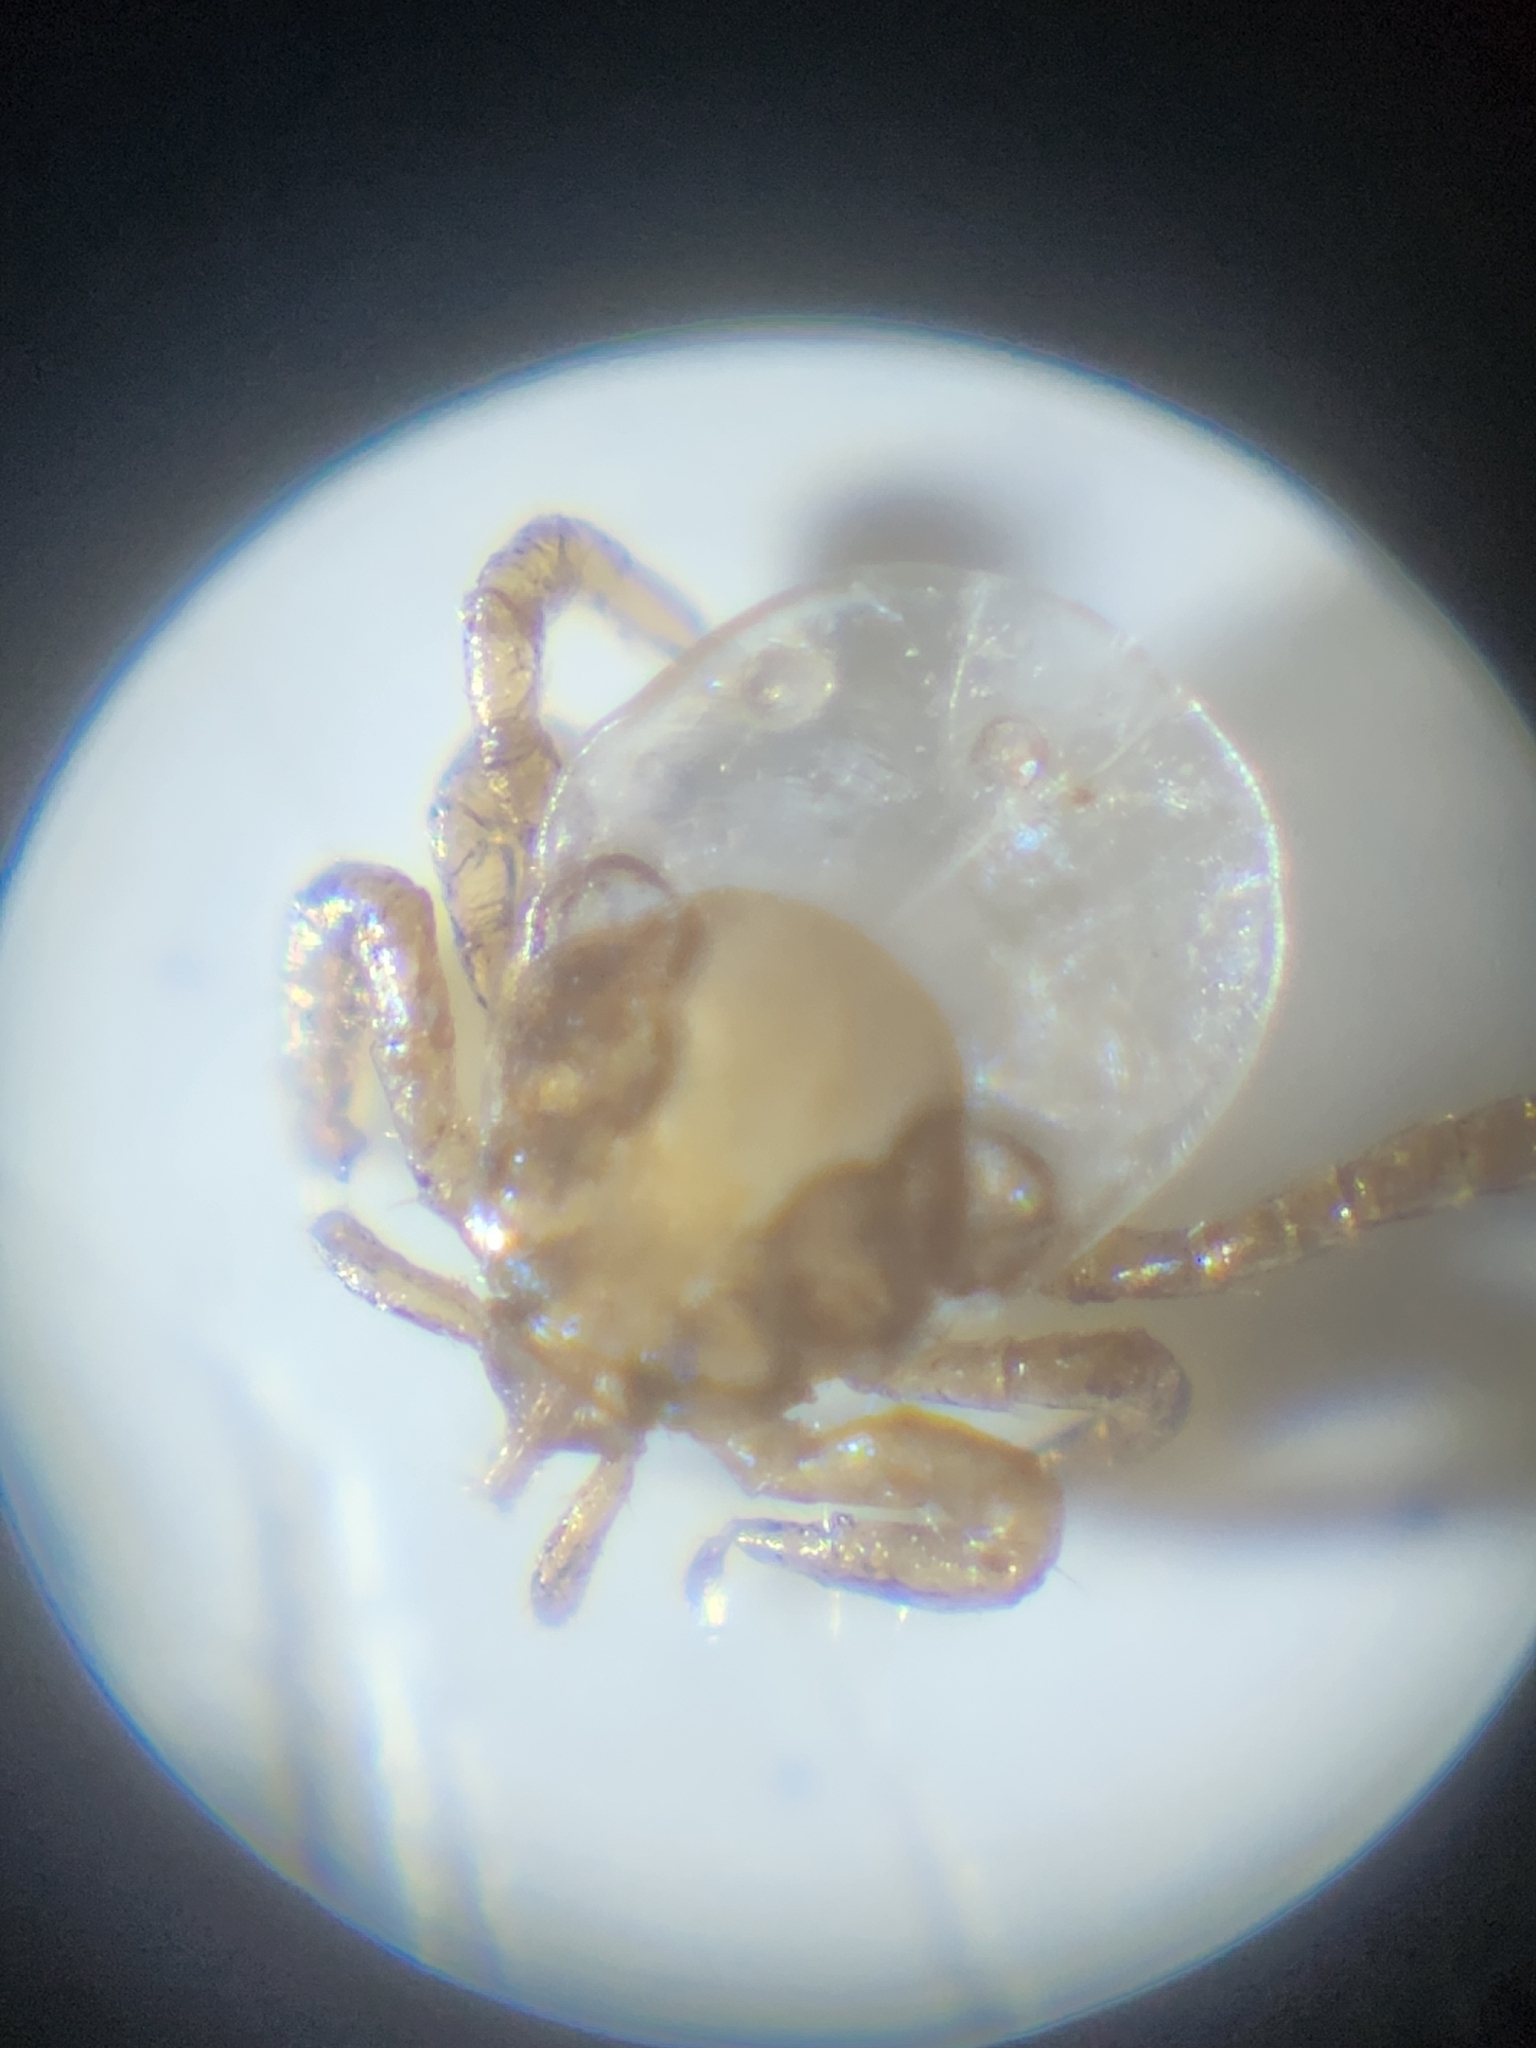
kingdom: Animalia
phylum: Arthropoda
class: Arachnida
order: Ixodida
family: Ixodidae
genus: Ixodes
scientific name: Ixodes scapularis
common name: Black legged tick
